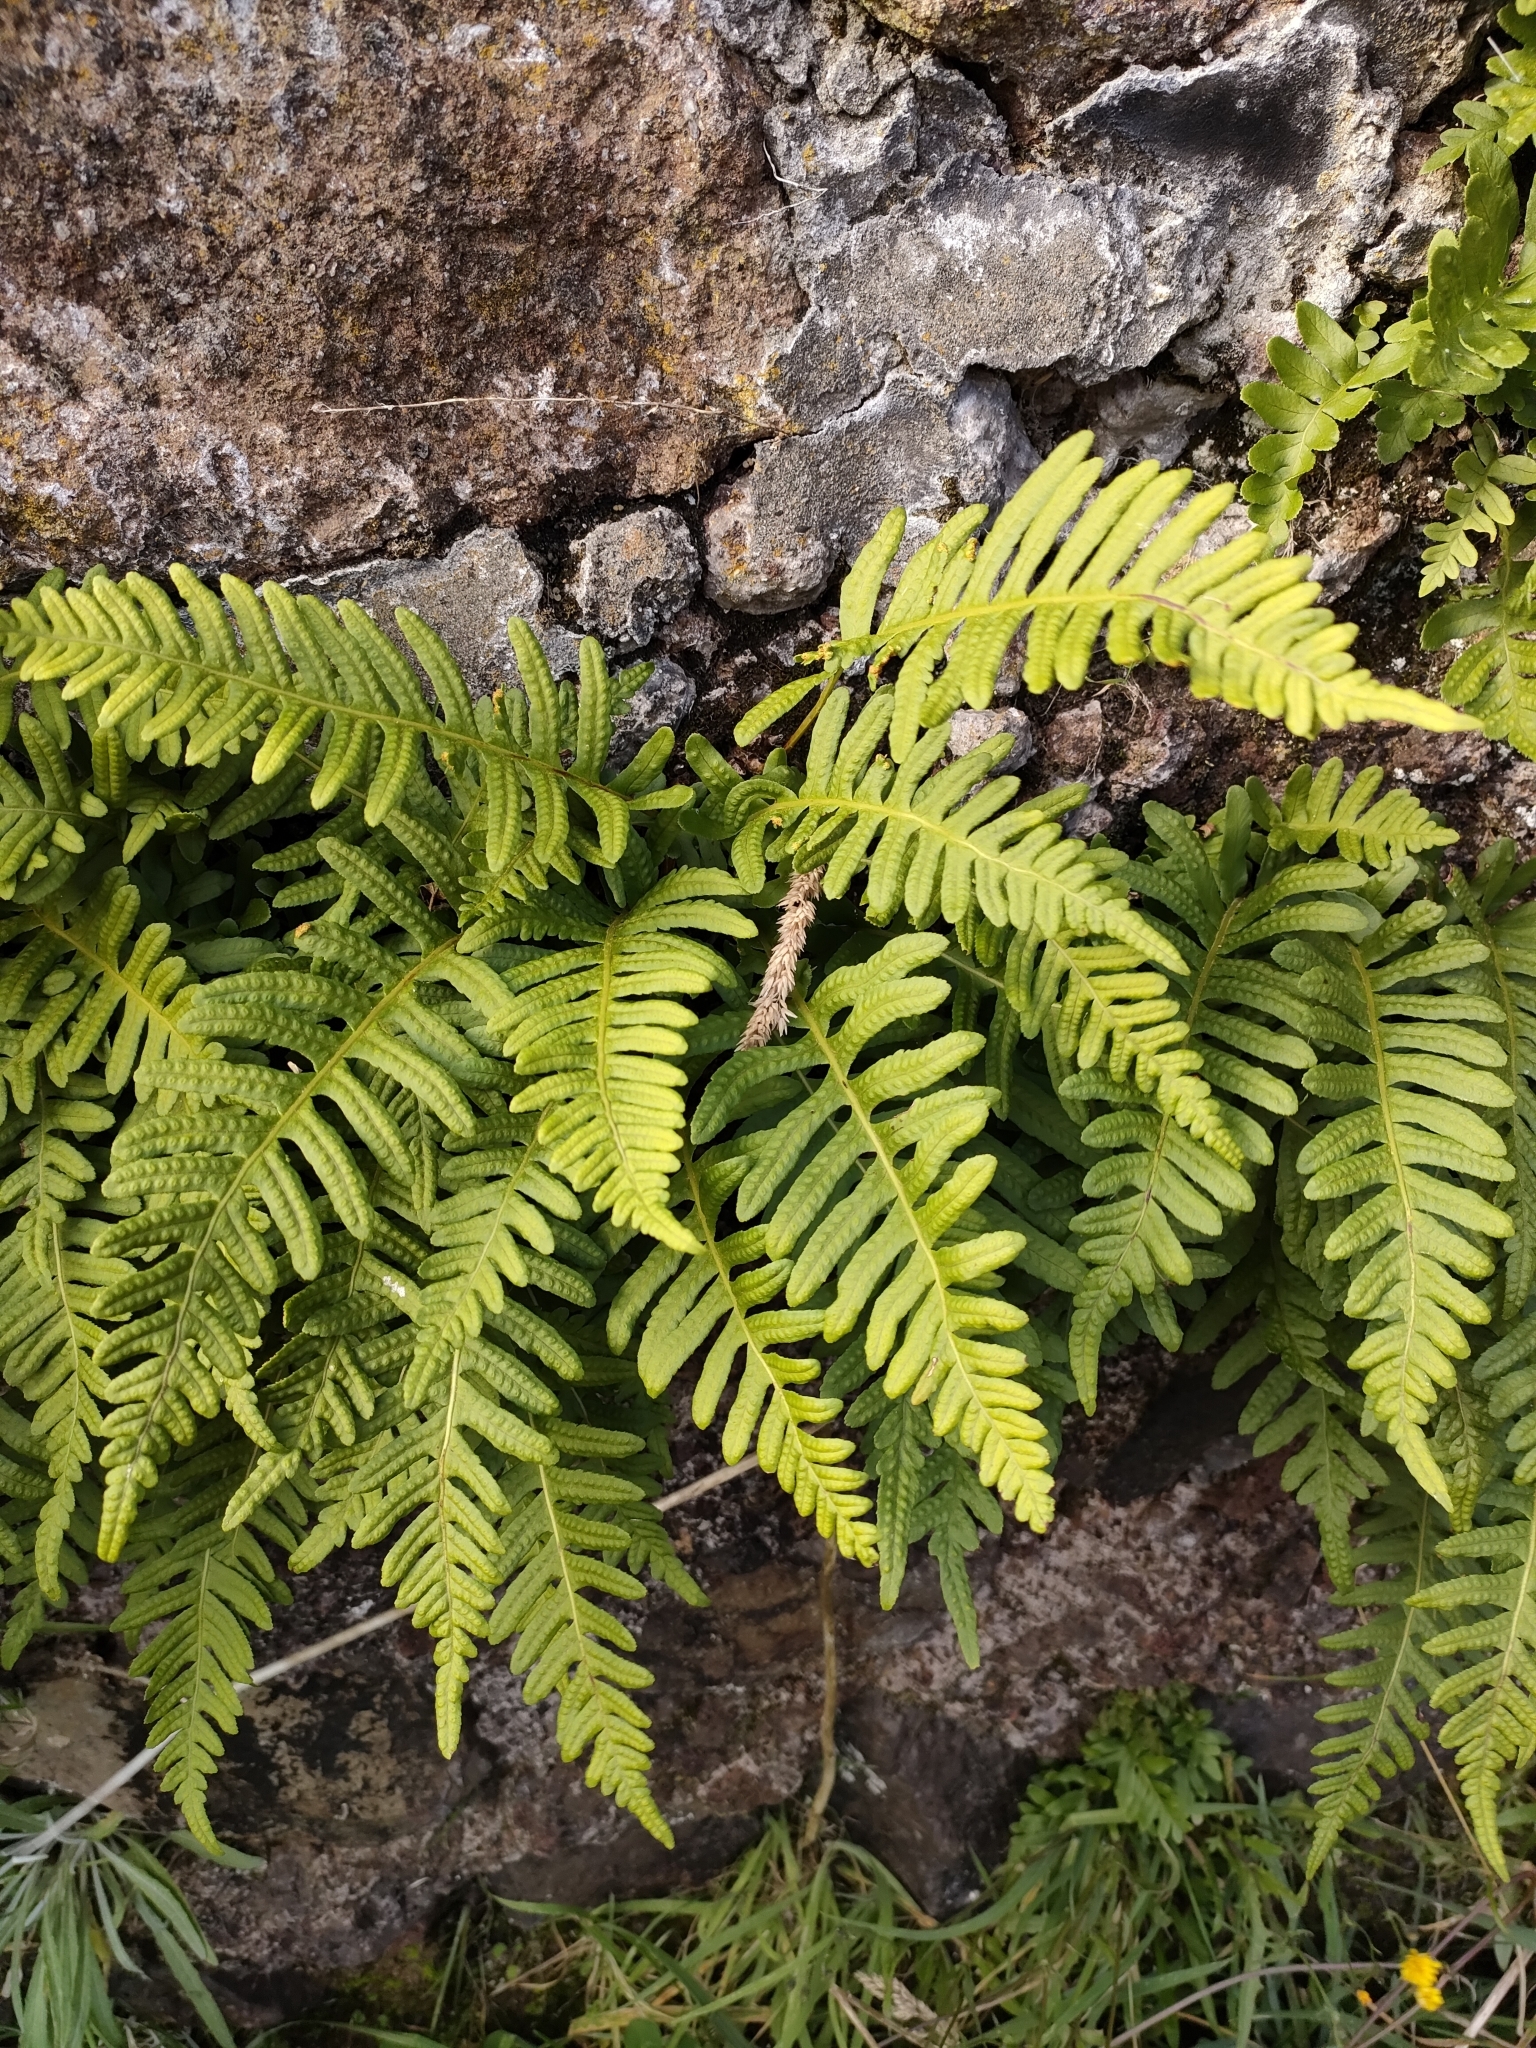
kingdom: Plantae
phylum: Tracheophyta
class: Polypodiopsida
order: Polypodiales
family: Polypodiaceae
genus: Polypodium
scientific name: Polypodium vulgare
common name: Common polypody
